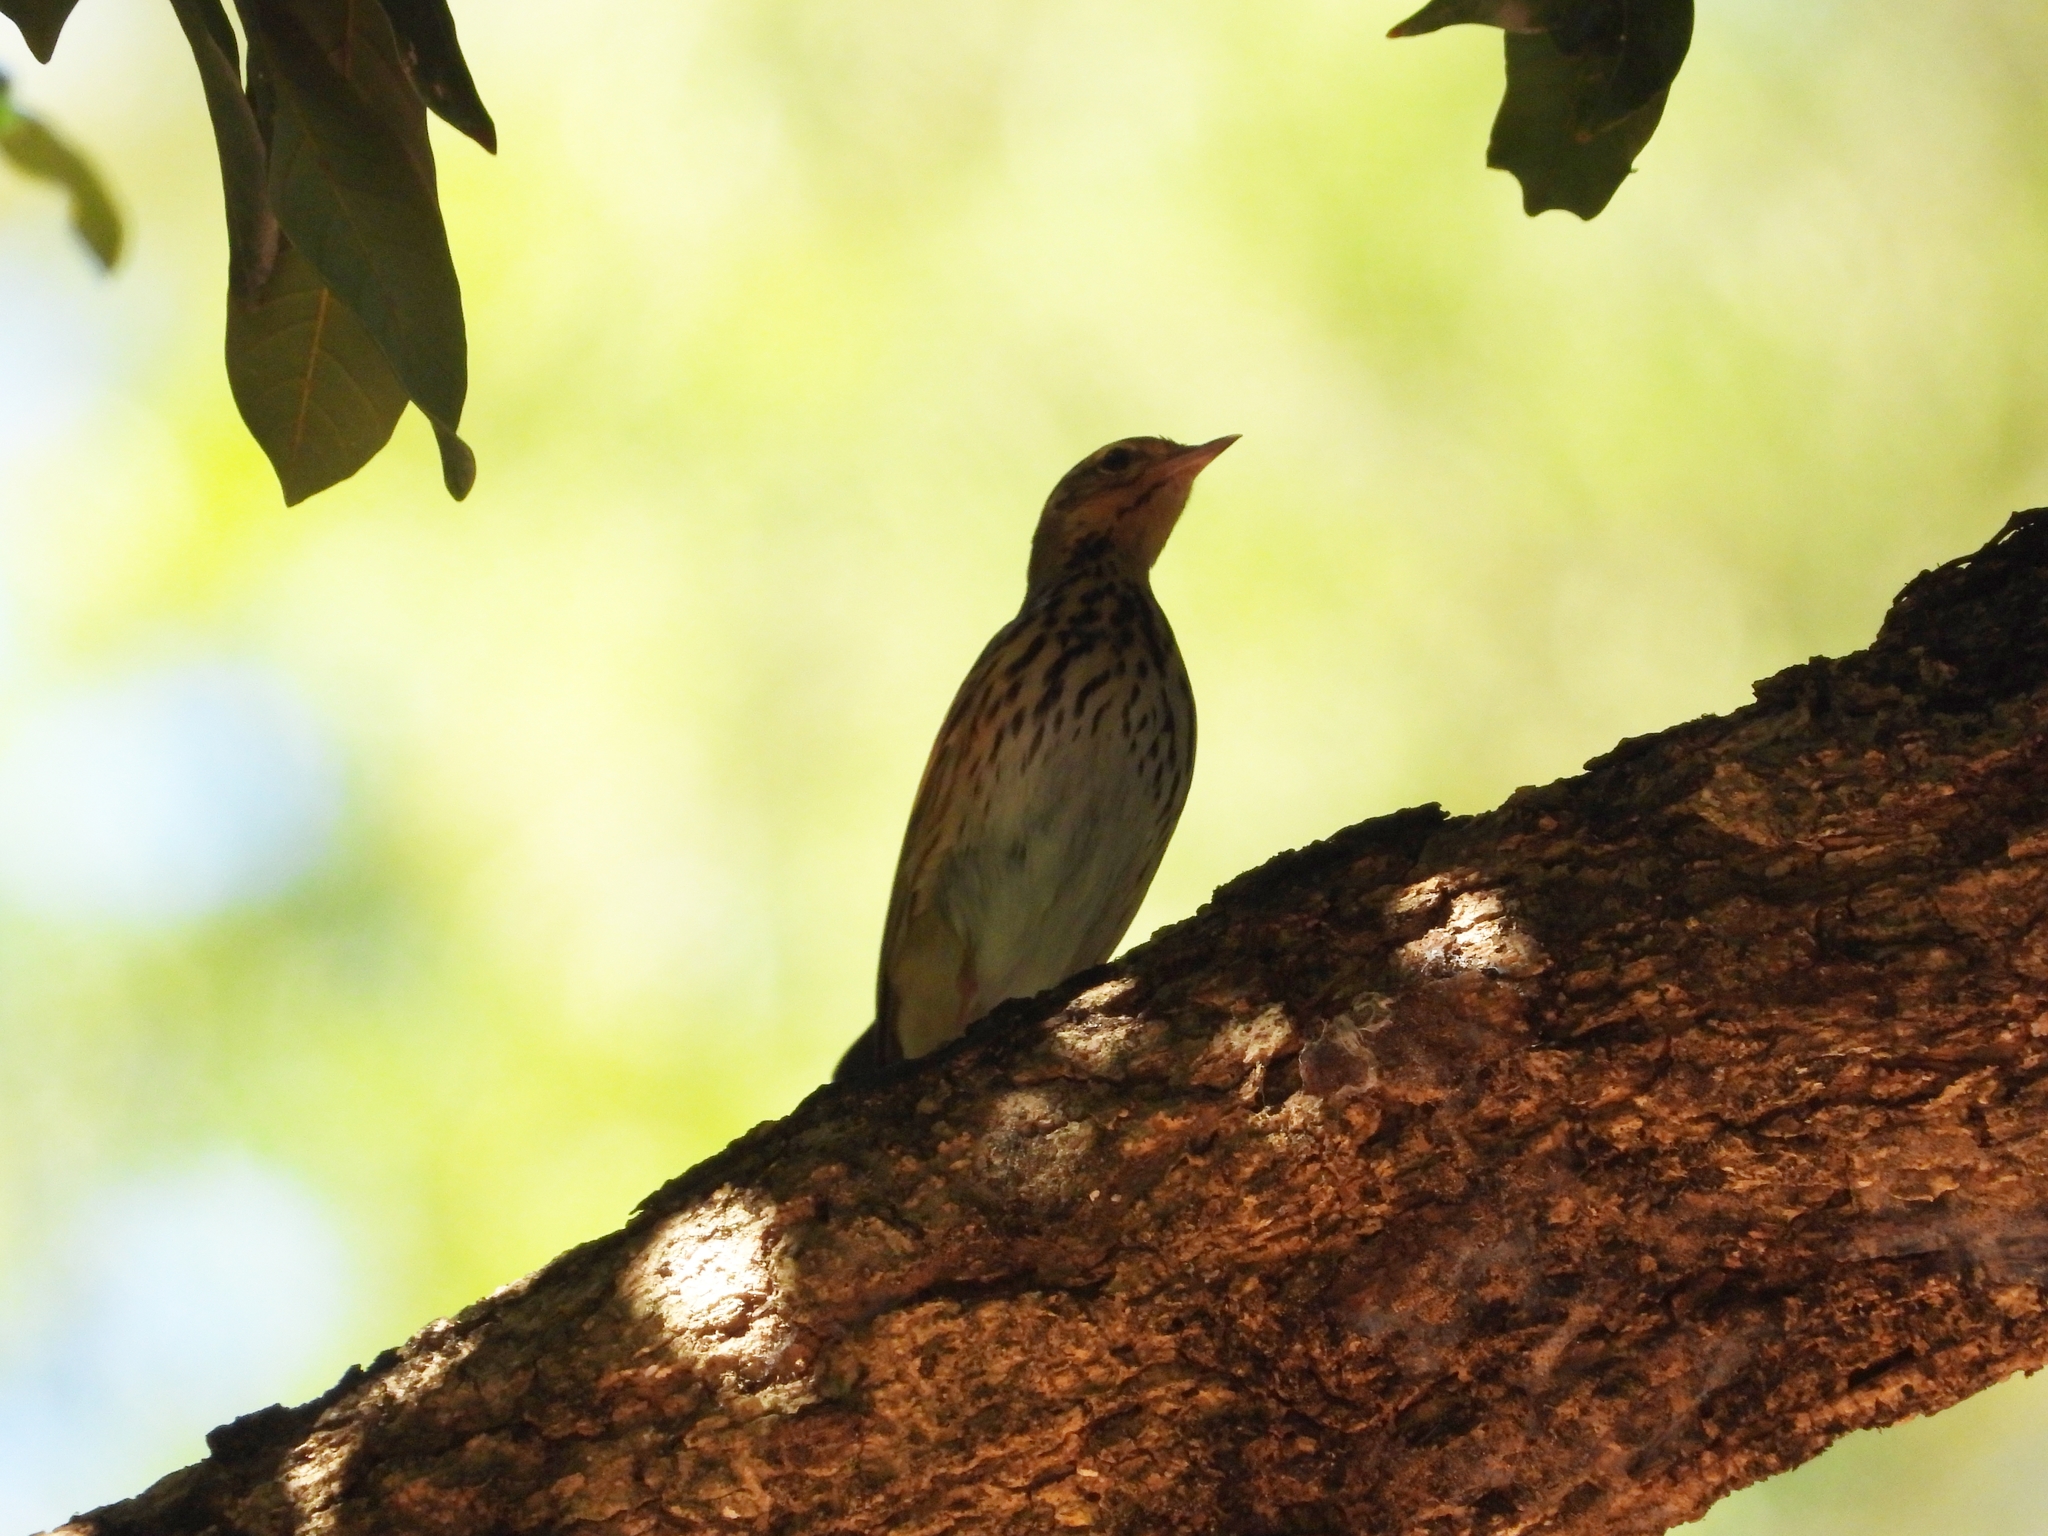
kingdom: Animalia
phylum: Chordata
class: Aves
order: Passeriformes
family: Motacillidae
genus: Anthus
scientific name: Anthus hodgsoni
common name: Olive-backed pipit
